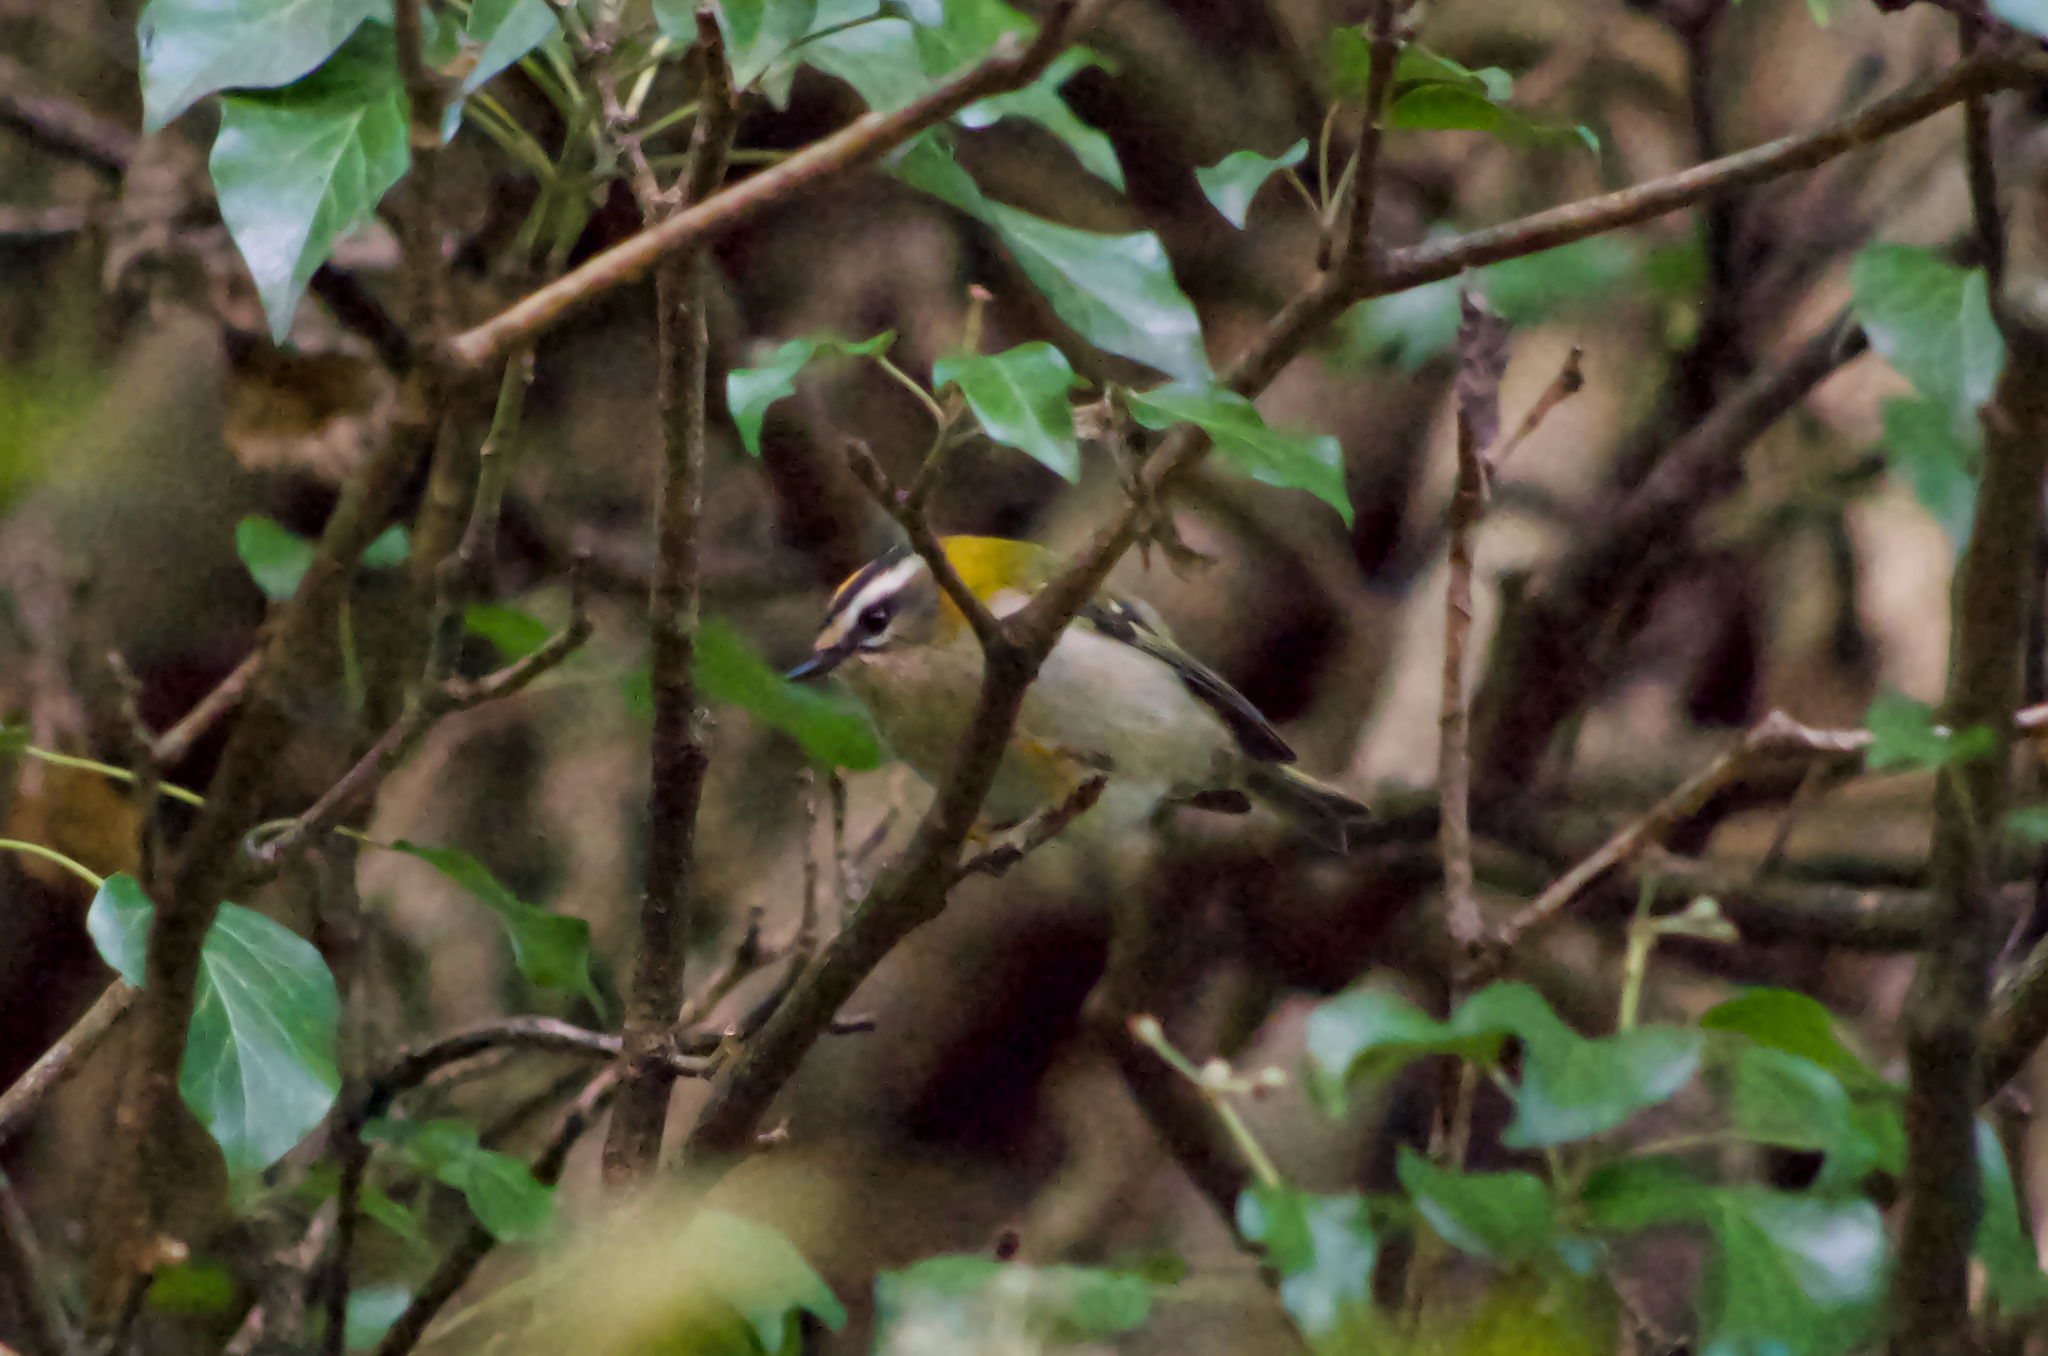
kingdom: Animalia
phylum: Chordata
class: Aves
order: Passeriformes
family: Regulidae
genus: Regulus
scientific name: Regulus ignicapilla
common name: Firecrest
